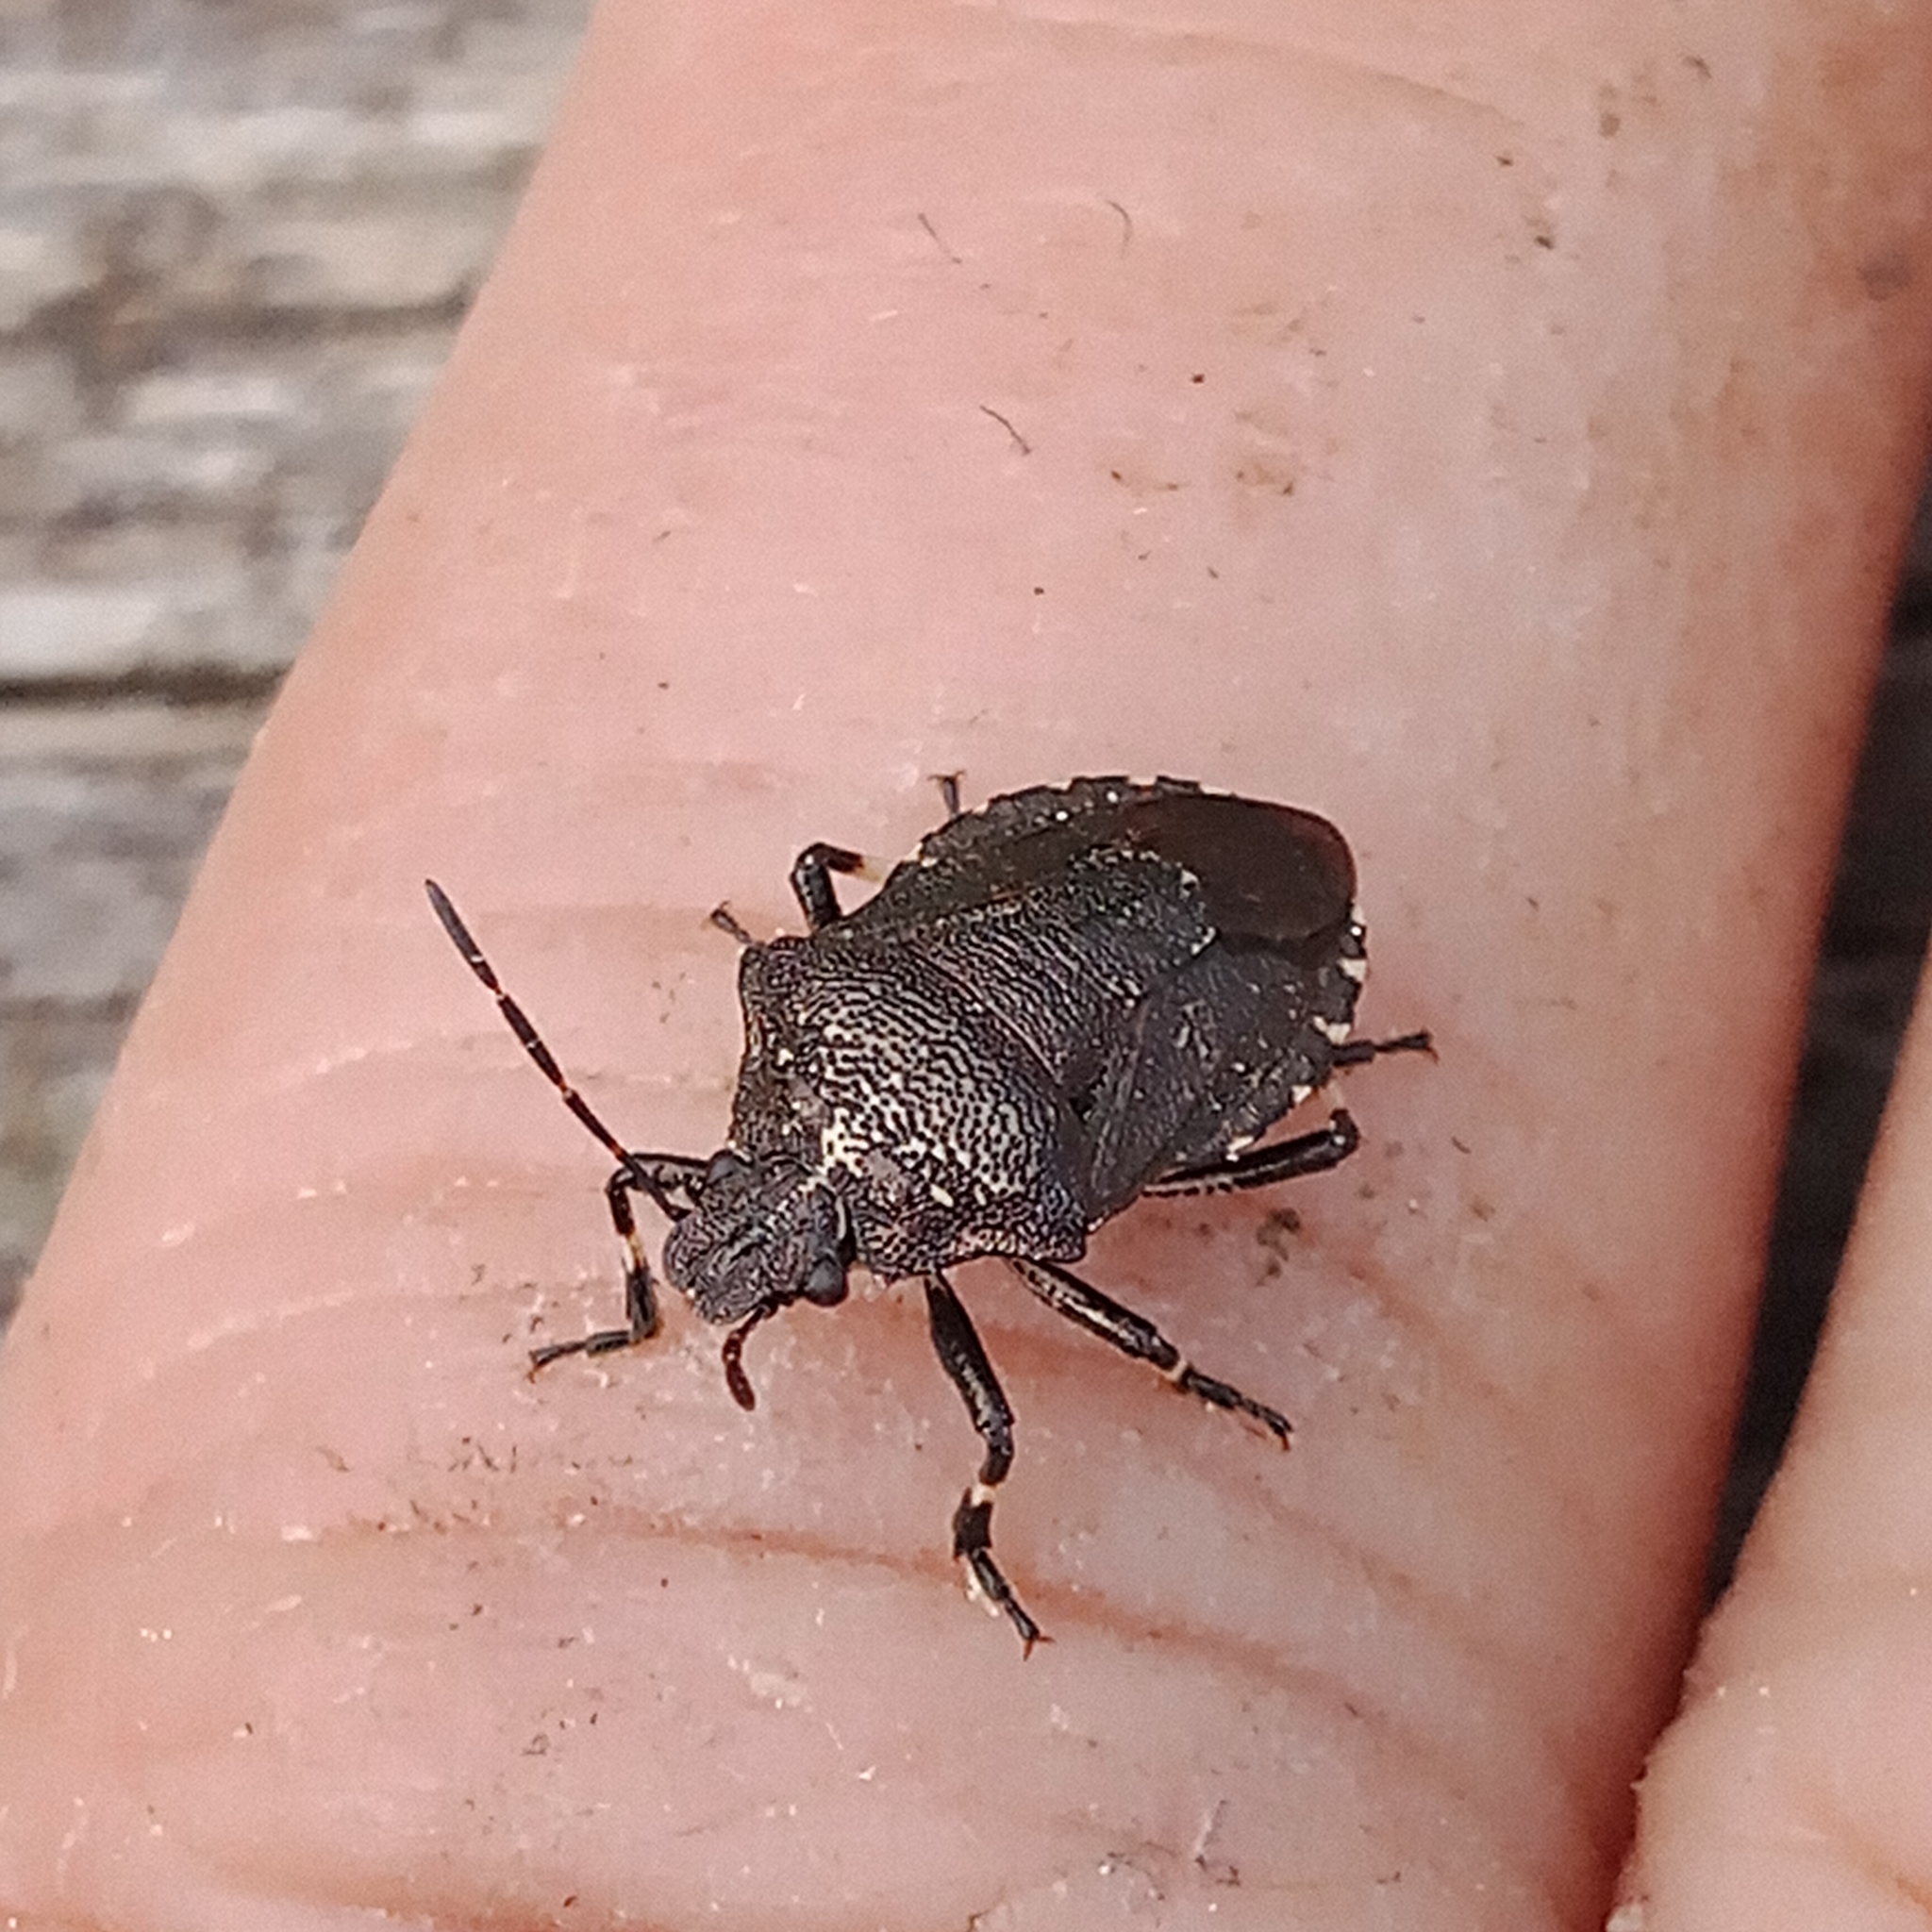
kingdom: Animalia
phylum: Arthropoda
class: Insecta
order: Hemiptera
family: Pentatomidae
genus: Rhacognathus
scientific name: Rhacognathus punctatus
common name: Heather bug
